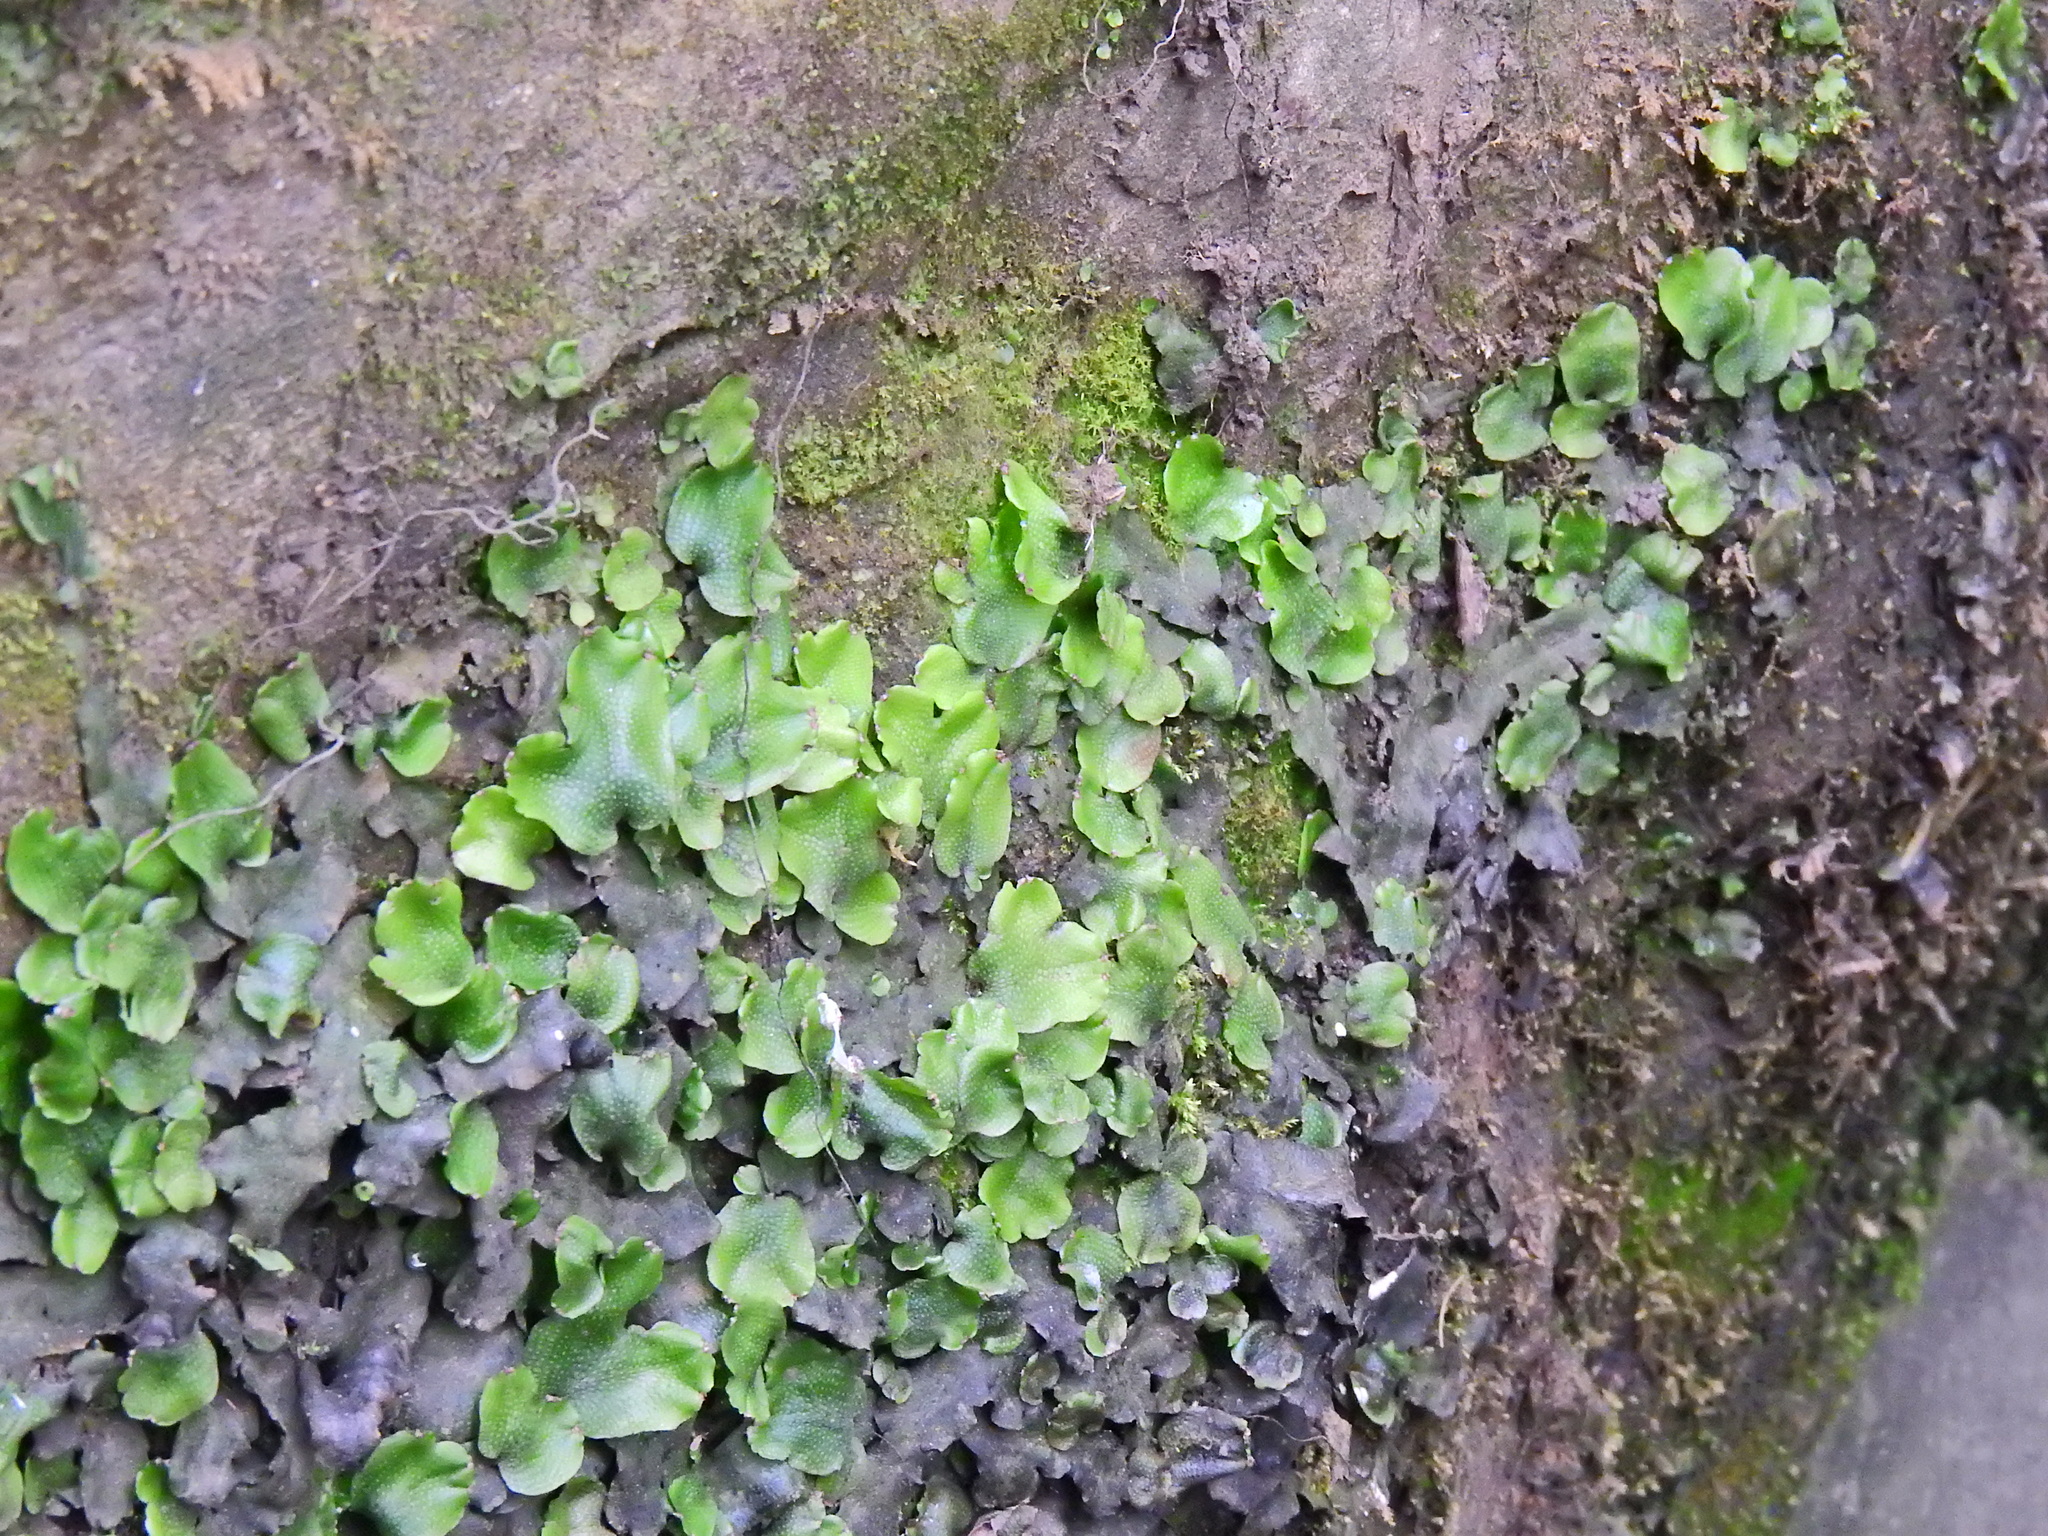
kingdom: Plantae
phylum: Marchantiophyta
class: Marchantiopsida
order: Marchantiales
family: Conocephalaceae
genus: Conocephalum
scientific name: Conocephalum conicum
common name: Great scented liverwort
